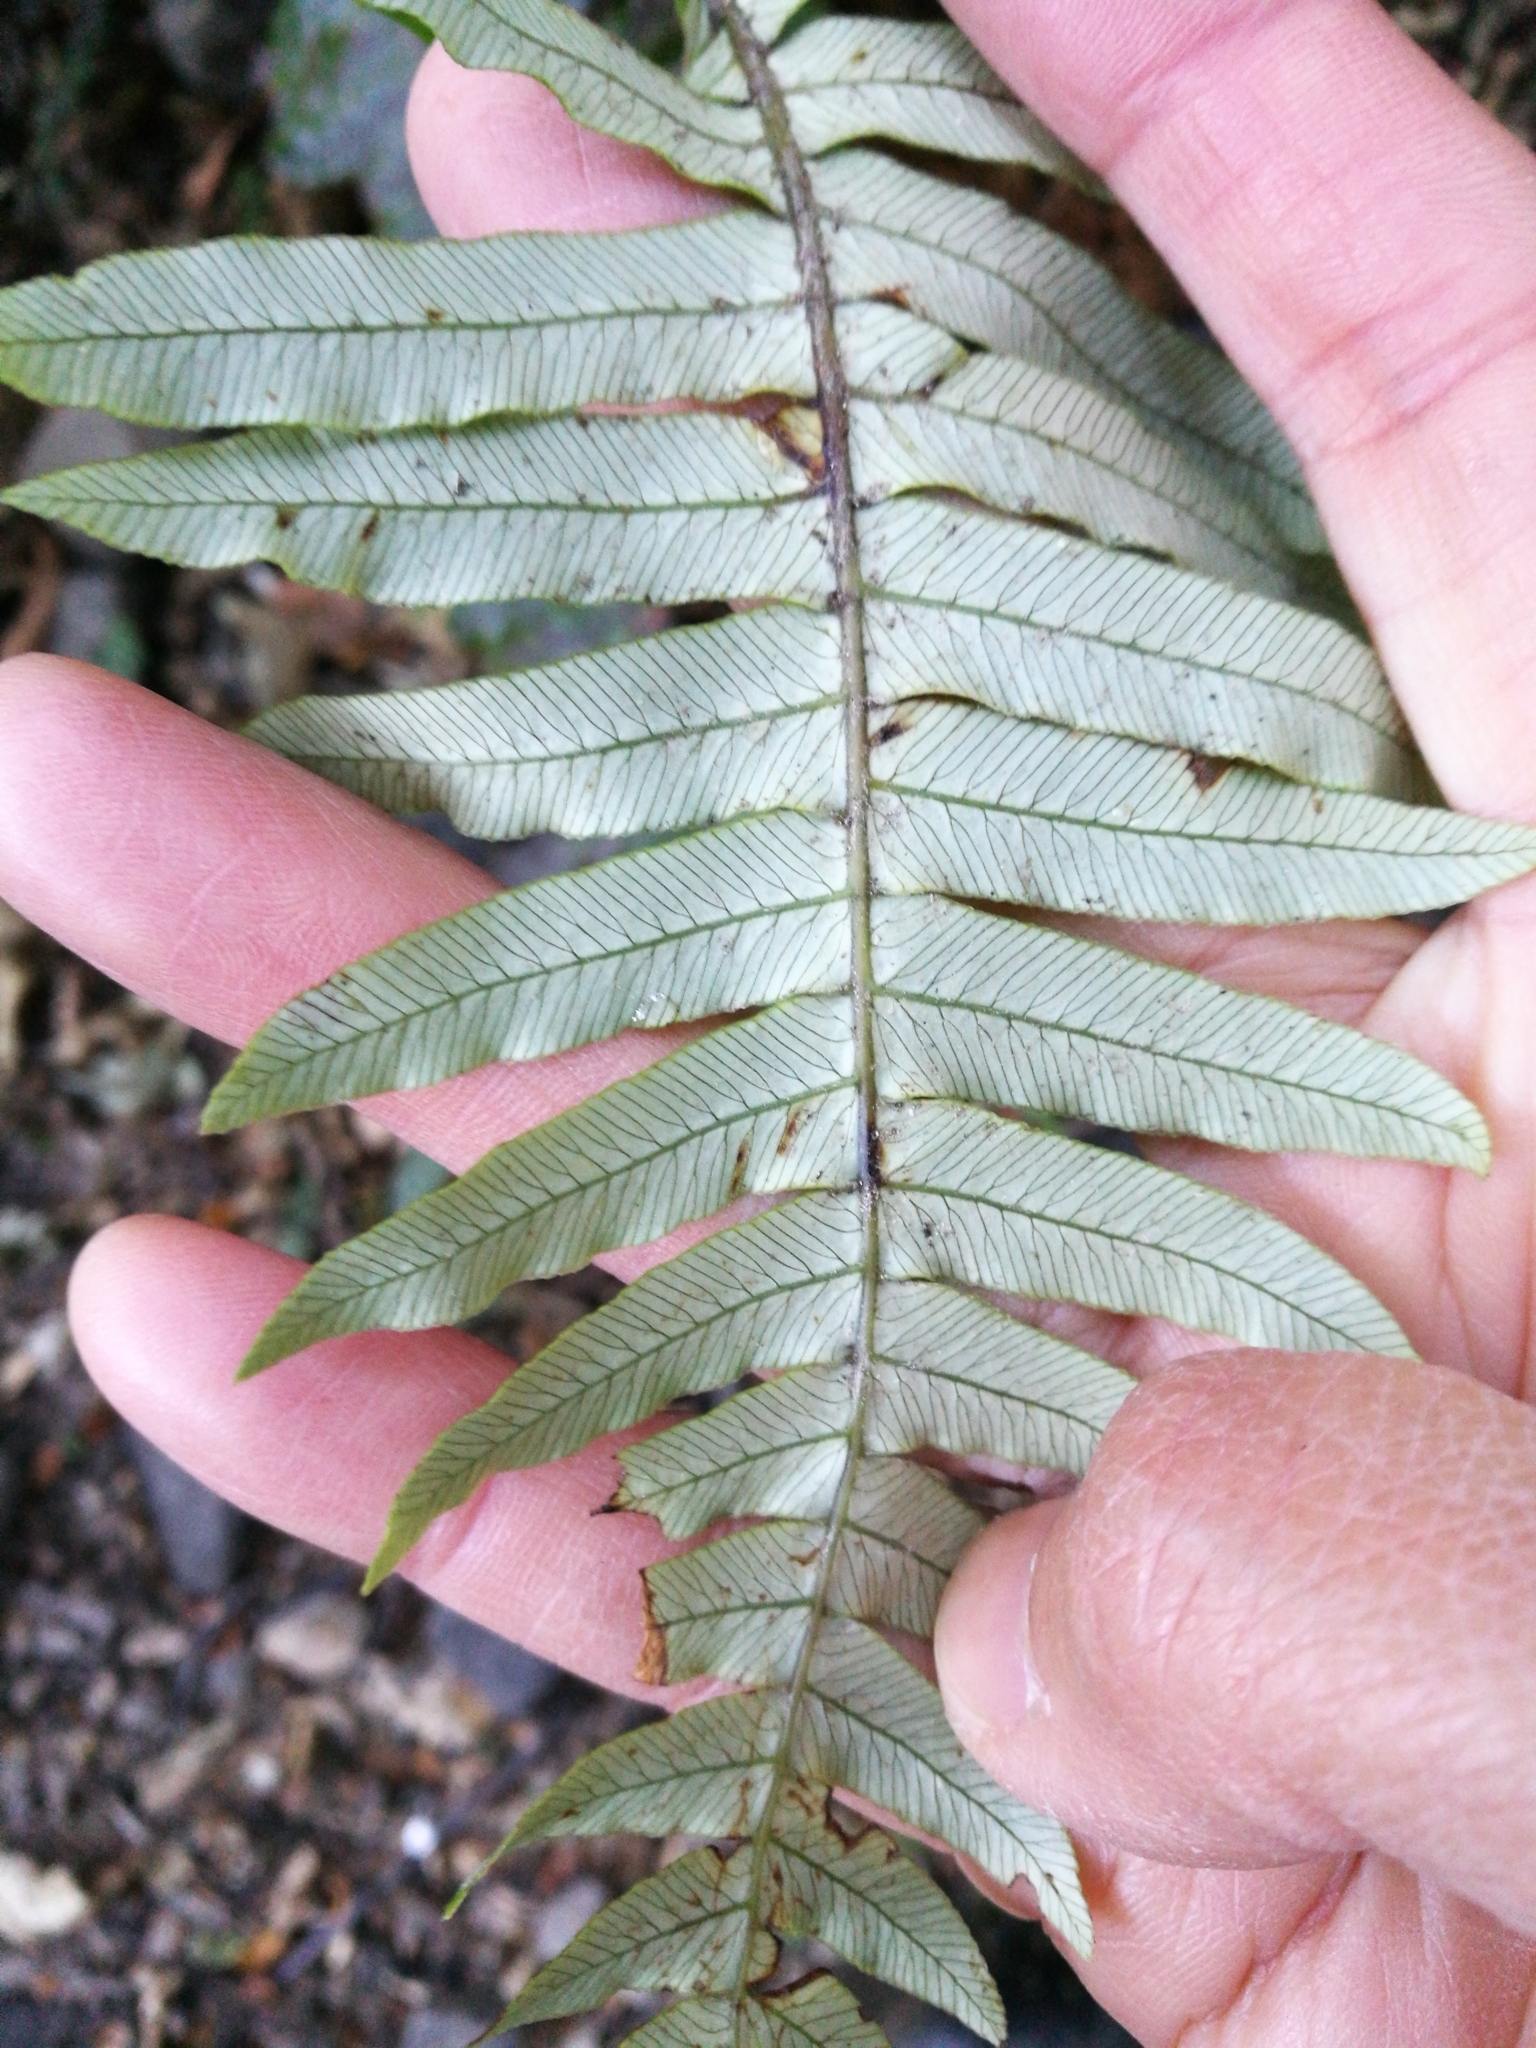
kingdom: Plantae
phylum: Tracheophyta
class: Polypodiopsida
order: Polypodiales
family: Blechnaceae
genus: Lomaria
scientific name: Lomaria discolor
